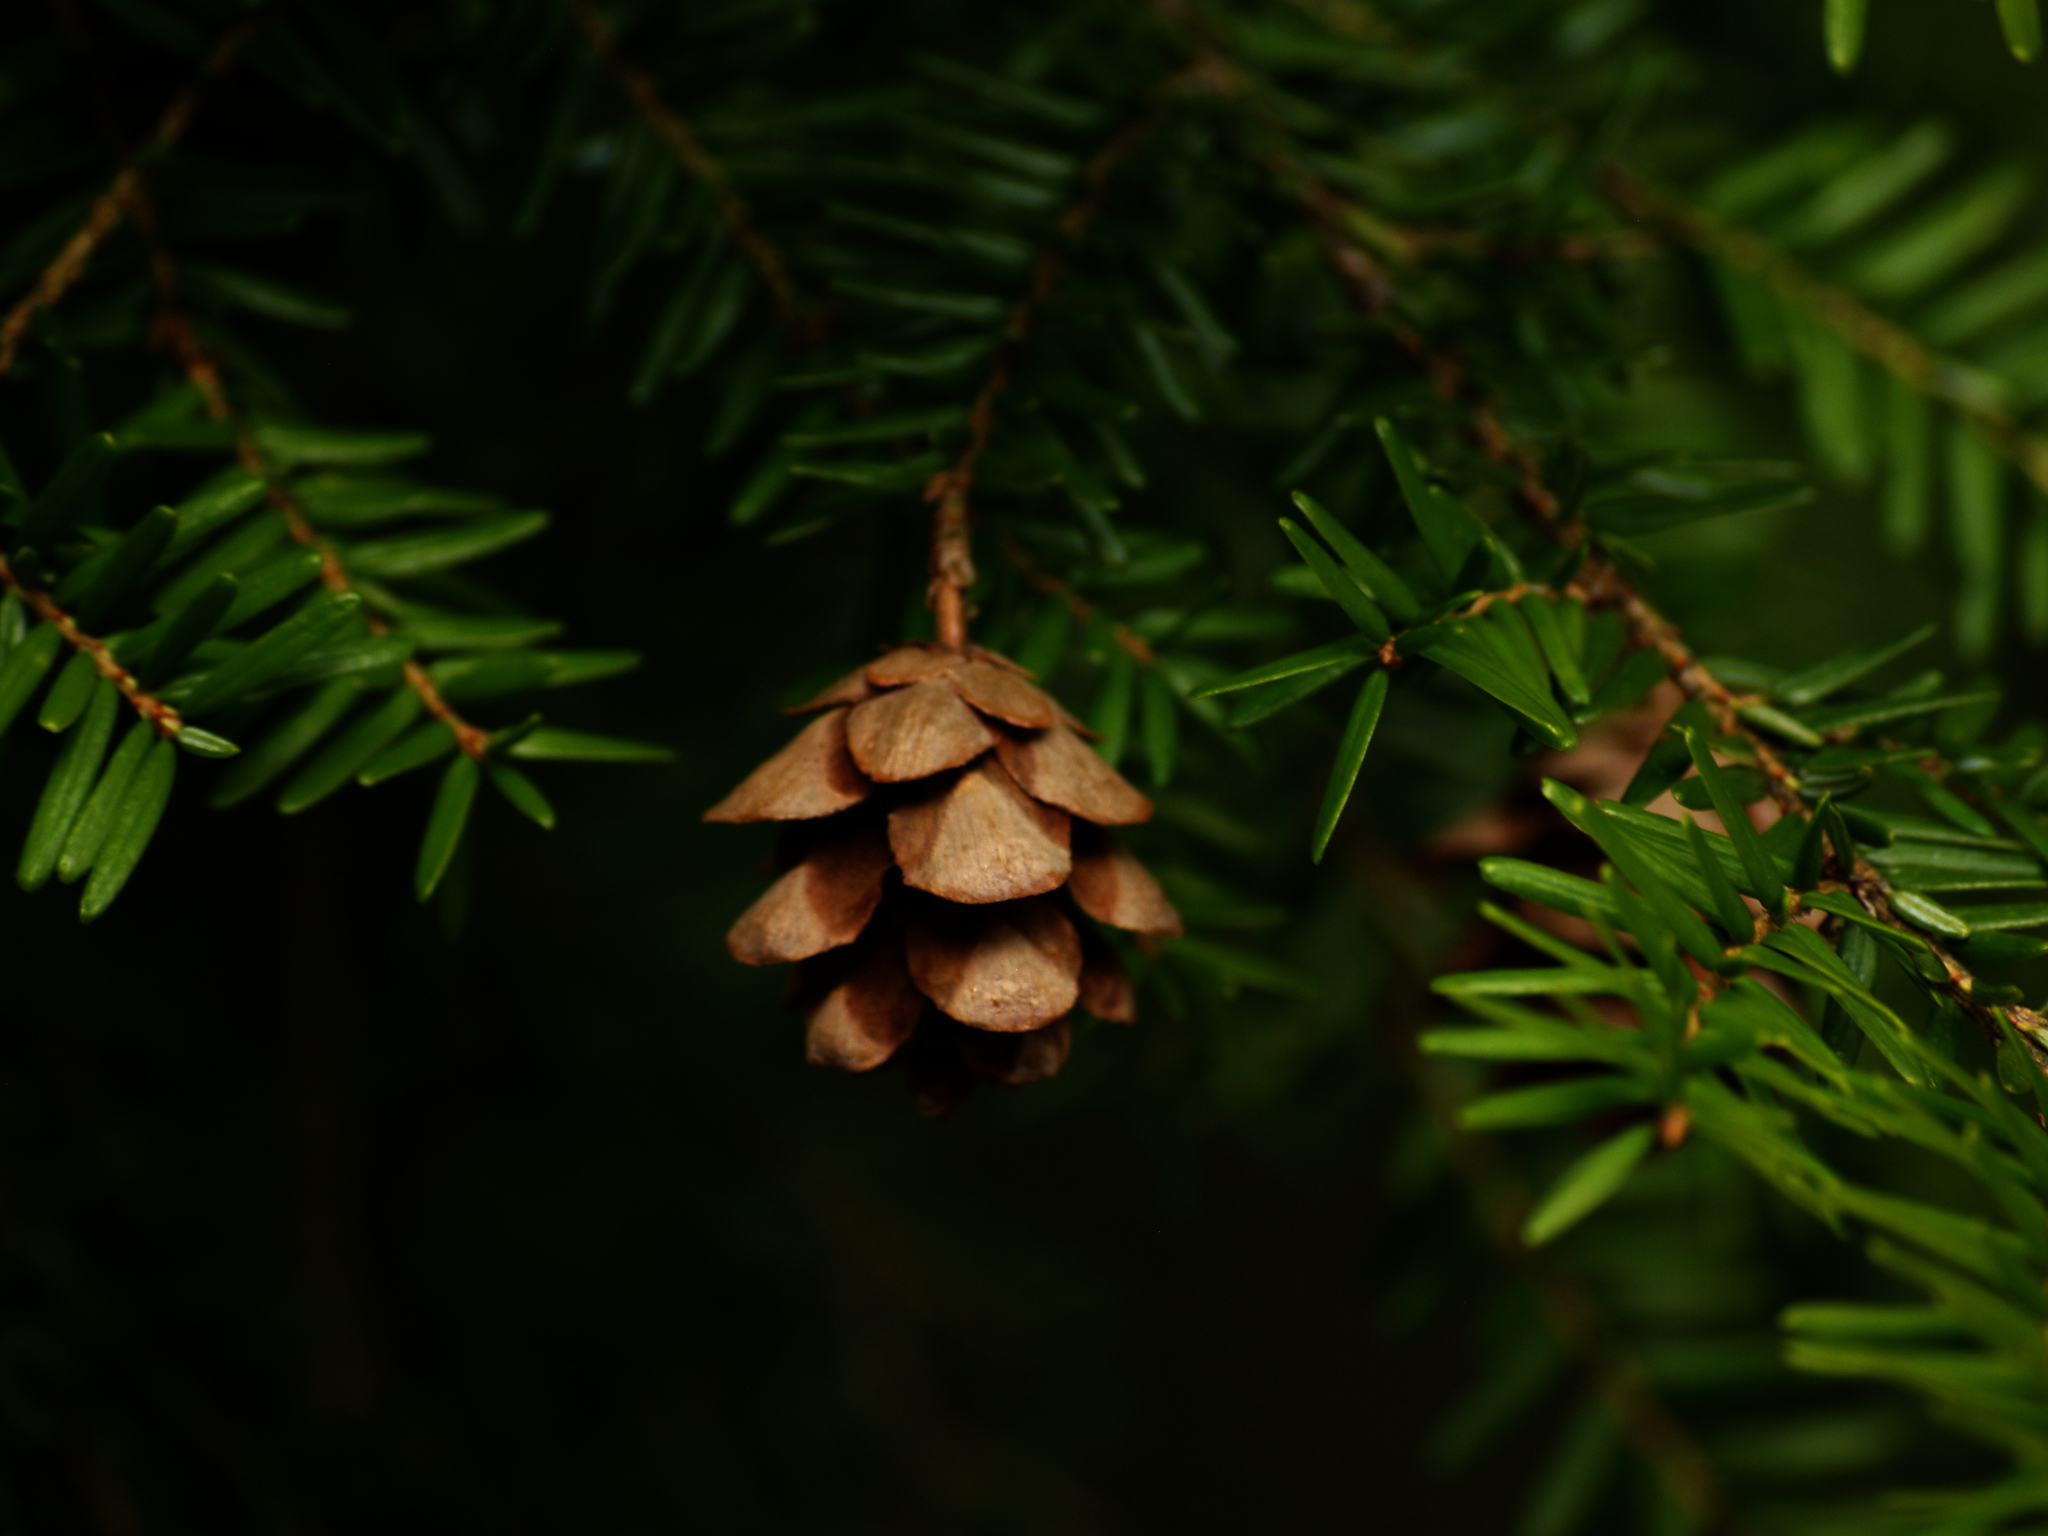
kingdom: Plantae
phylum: Tracheophyta
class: Pinopsida
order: Pinales
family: Pinaceae
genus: Tsuga
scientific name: Tsuga canadensis
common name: Eastern hemlock
